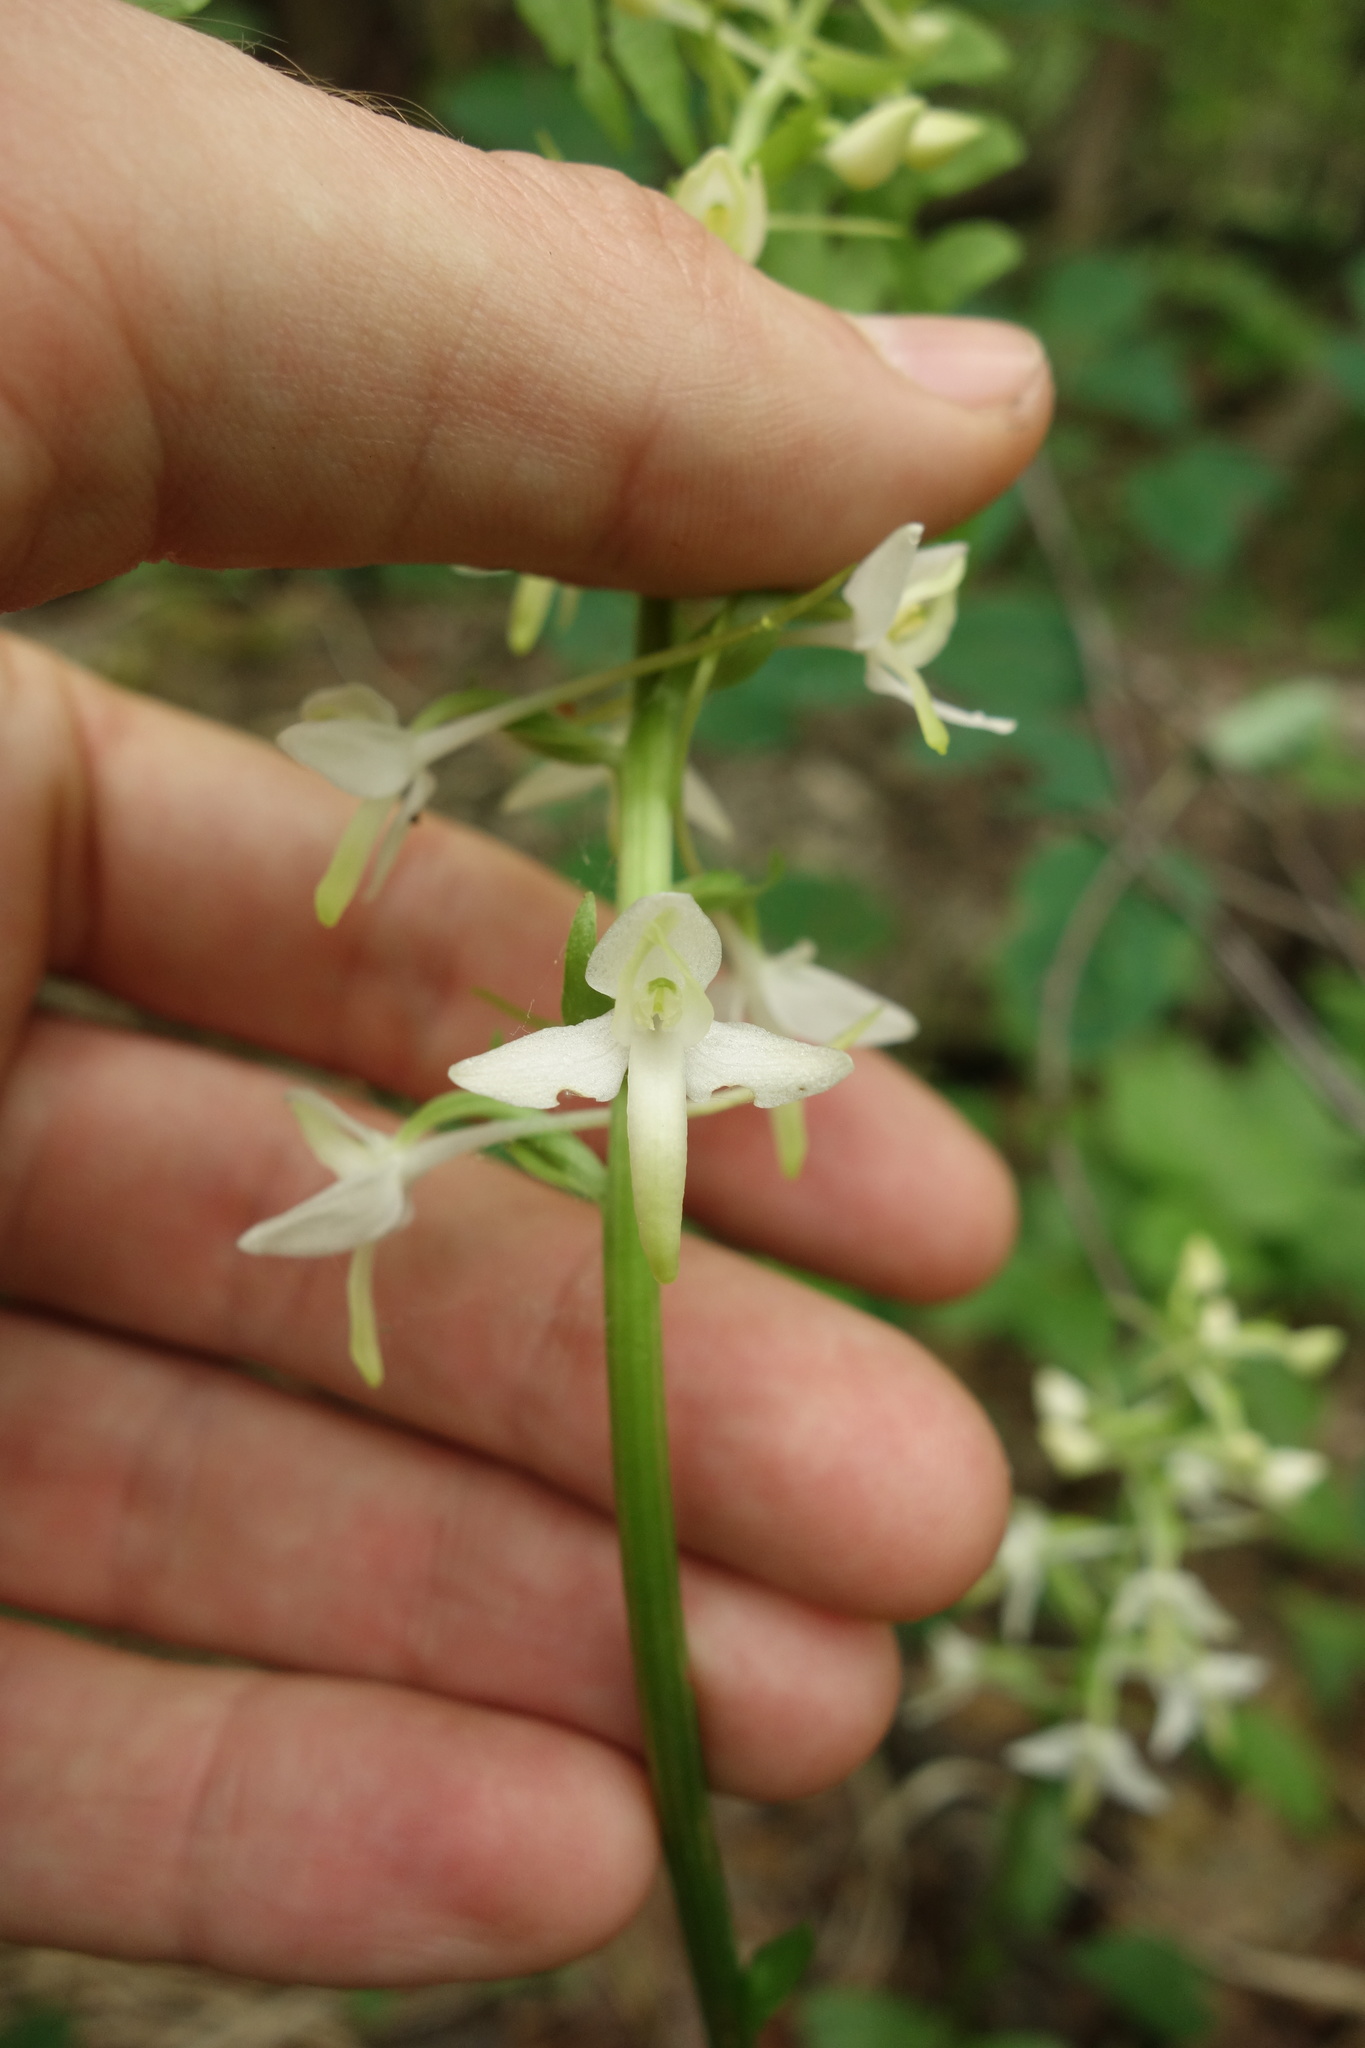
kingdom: Plantae
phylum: Tracheophyta
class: Liliopsida
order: Asparagales
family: Orchidaceae
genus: Platanthera
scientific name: Platanthera bifolia
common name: Lesser butterfly-orchid
